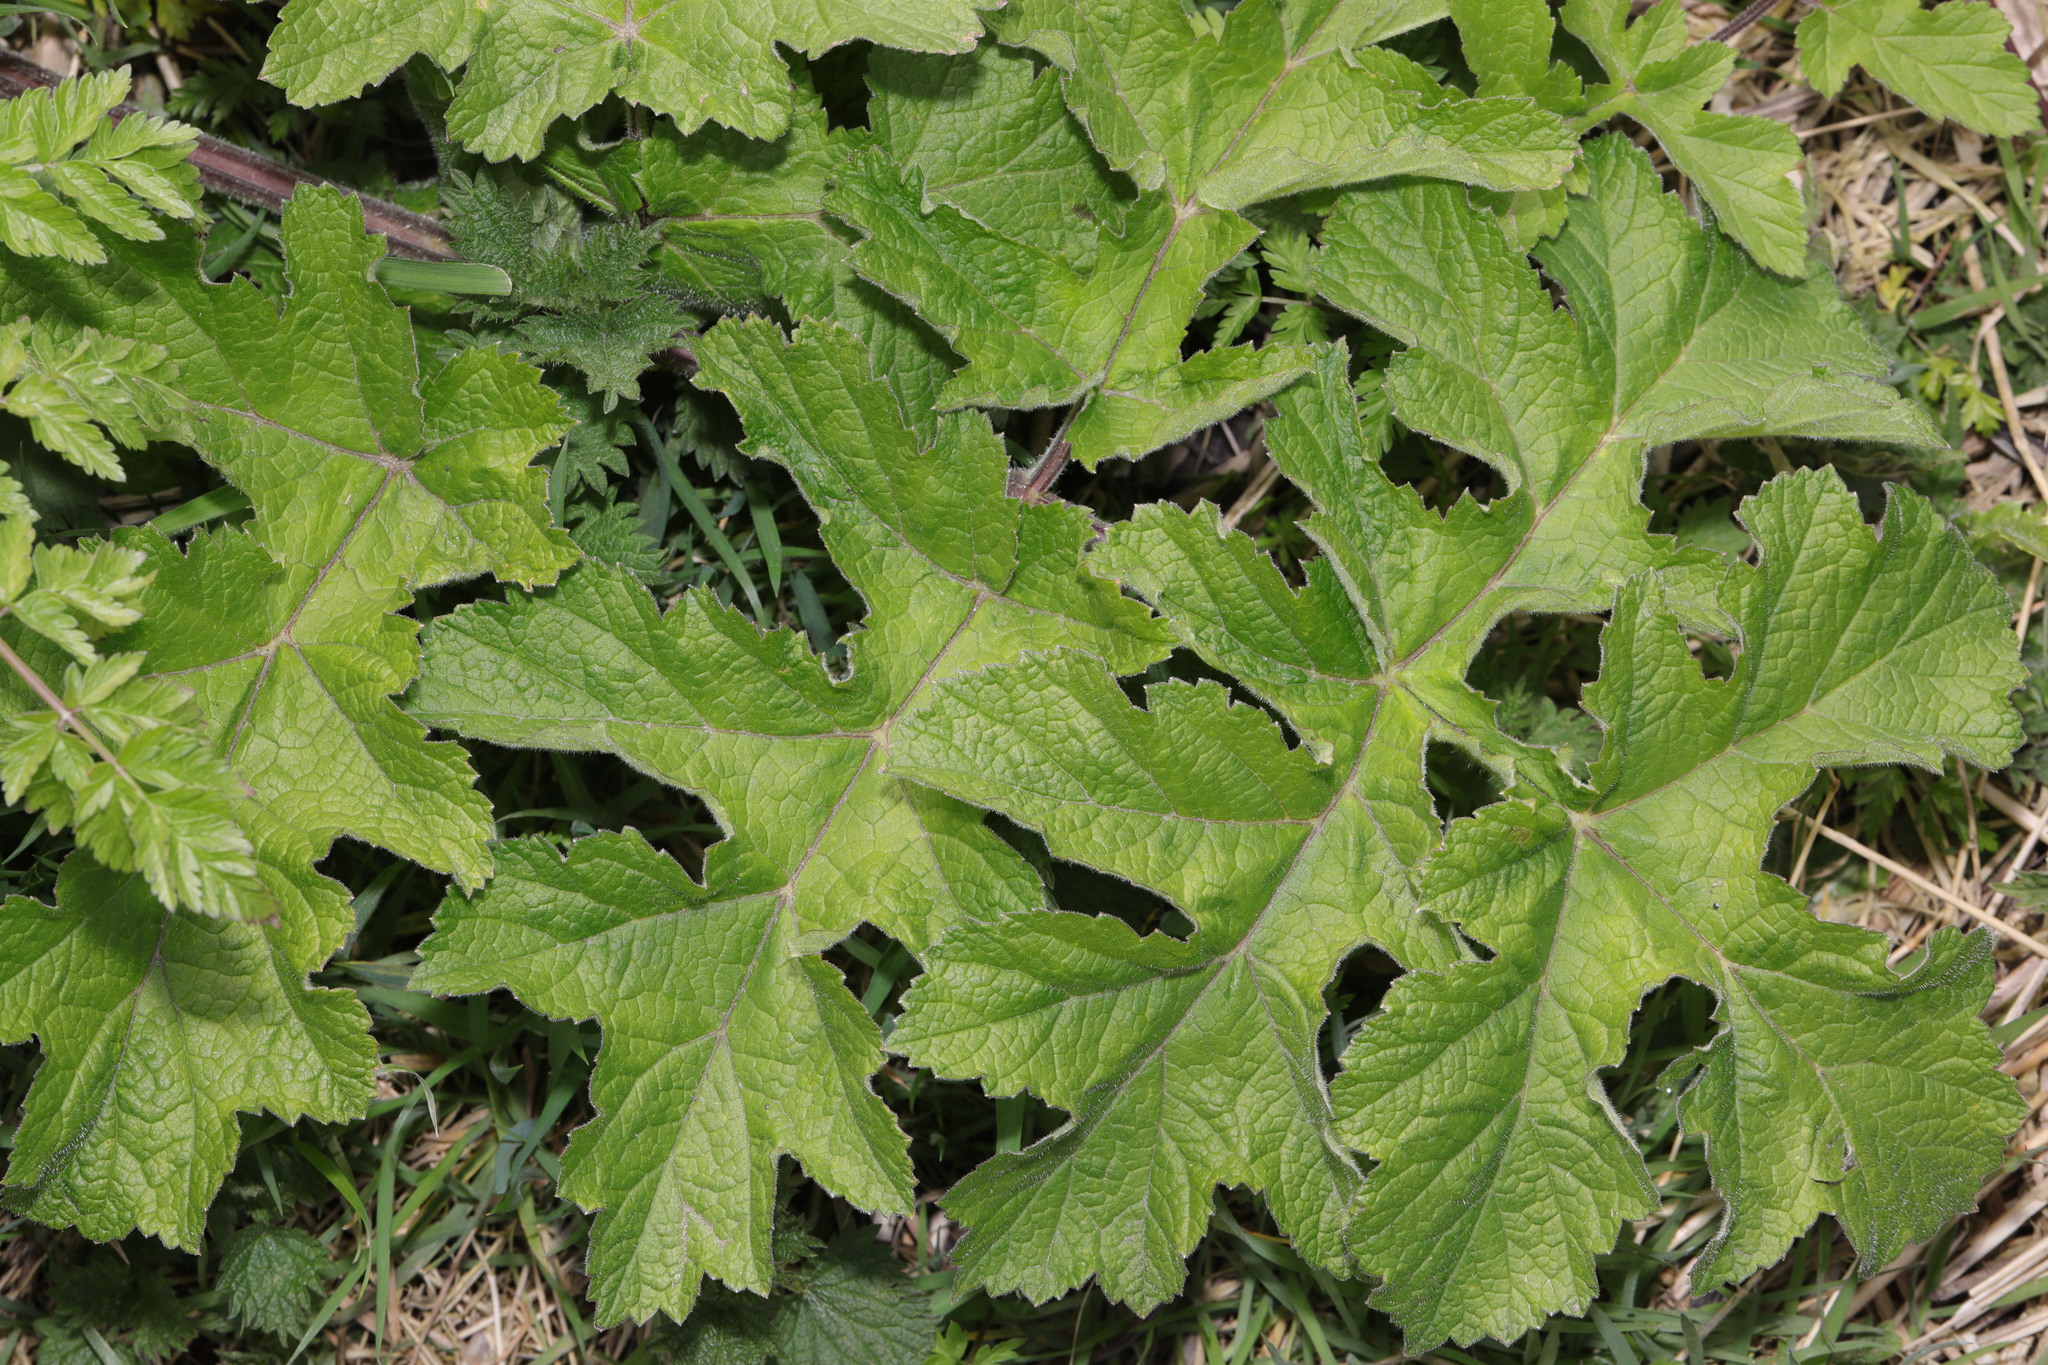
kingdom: Plantae
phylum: Tracheophyta
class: Magnoliopsida
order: Apiales
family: Apiaceae
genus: Heracleum
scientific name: Heracleum sphondylium
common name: Hogweed
